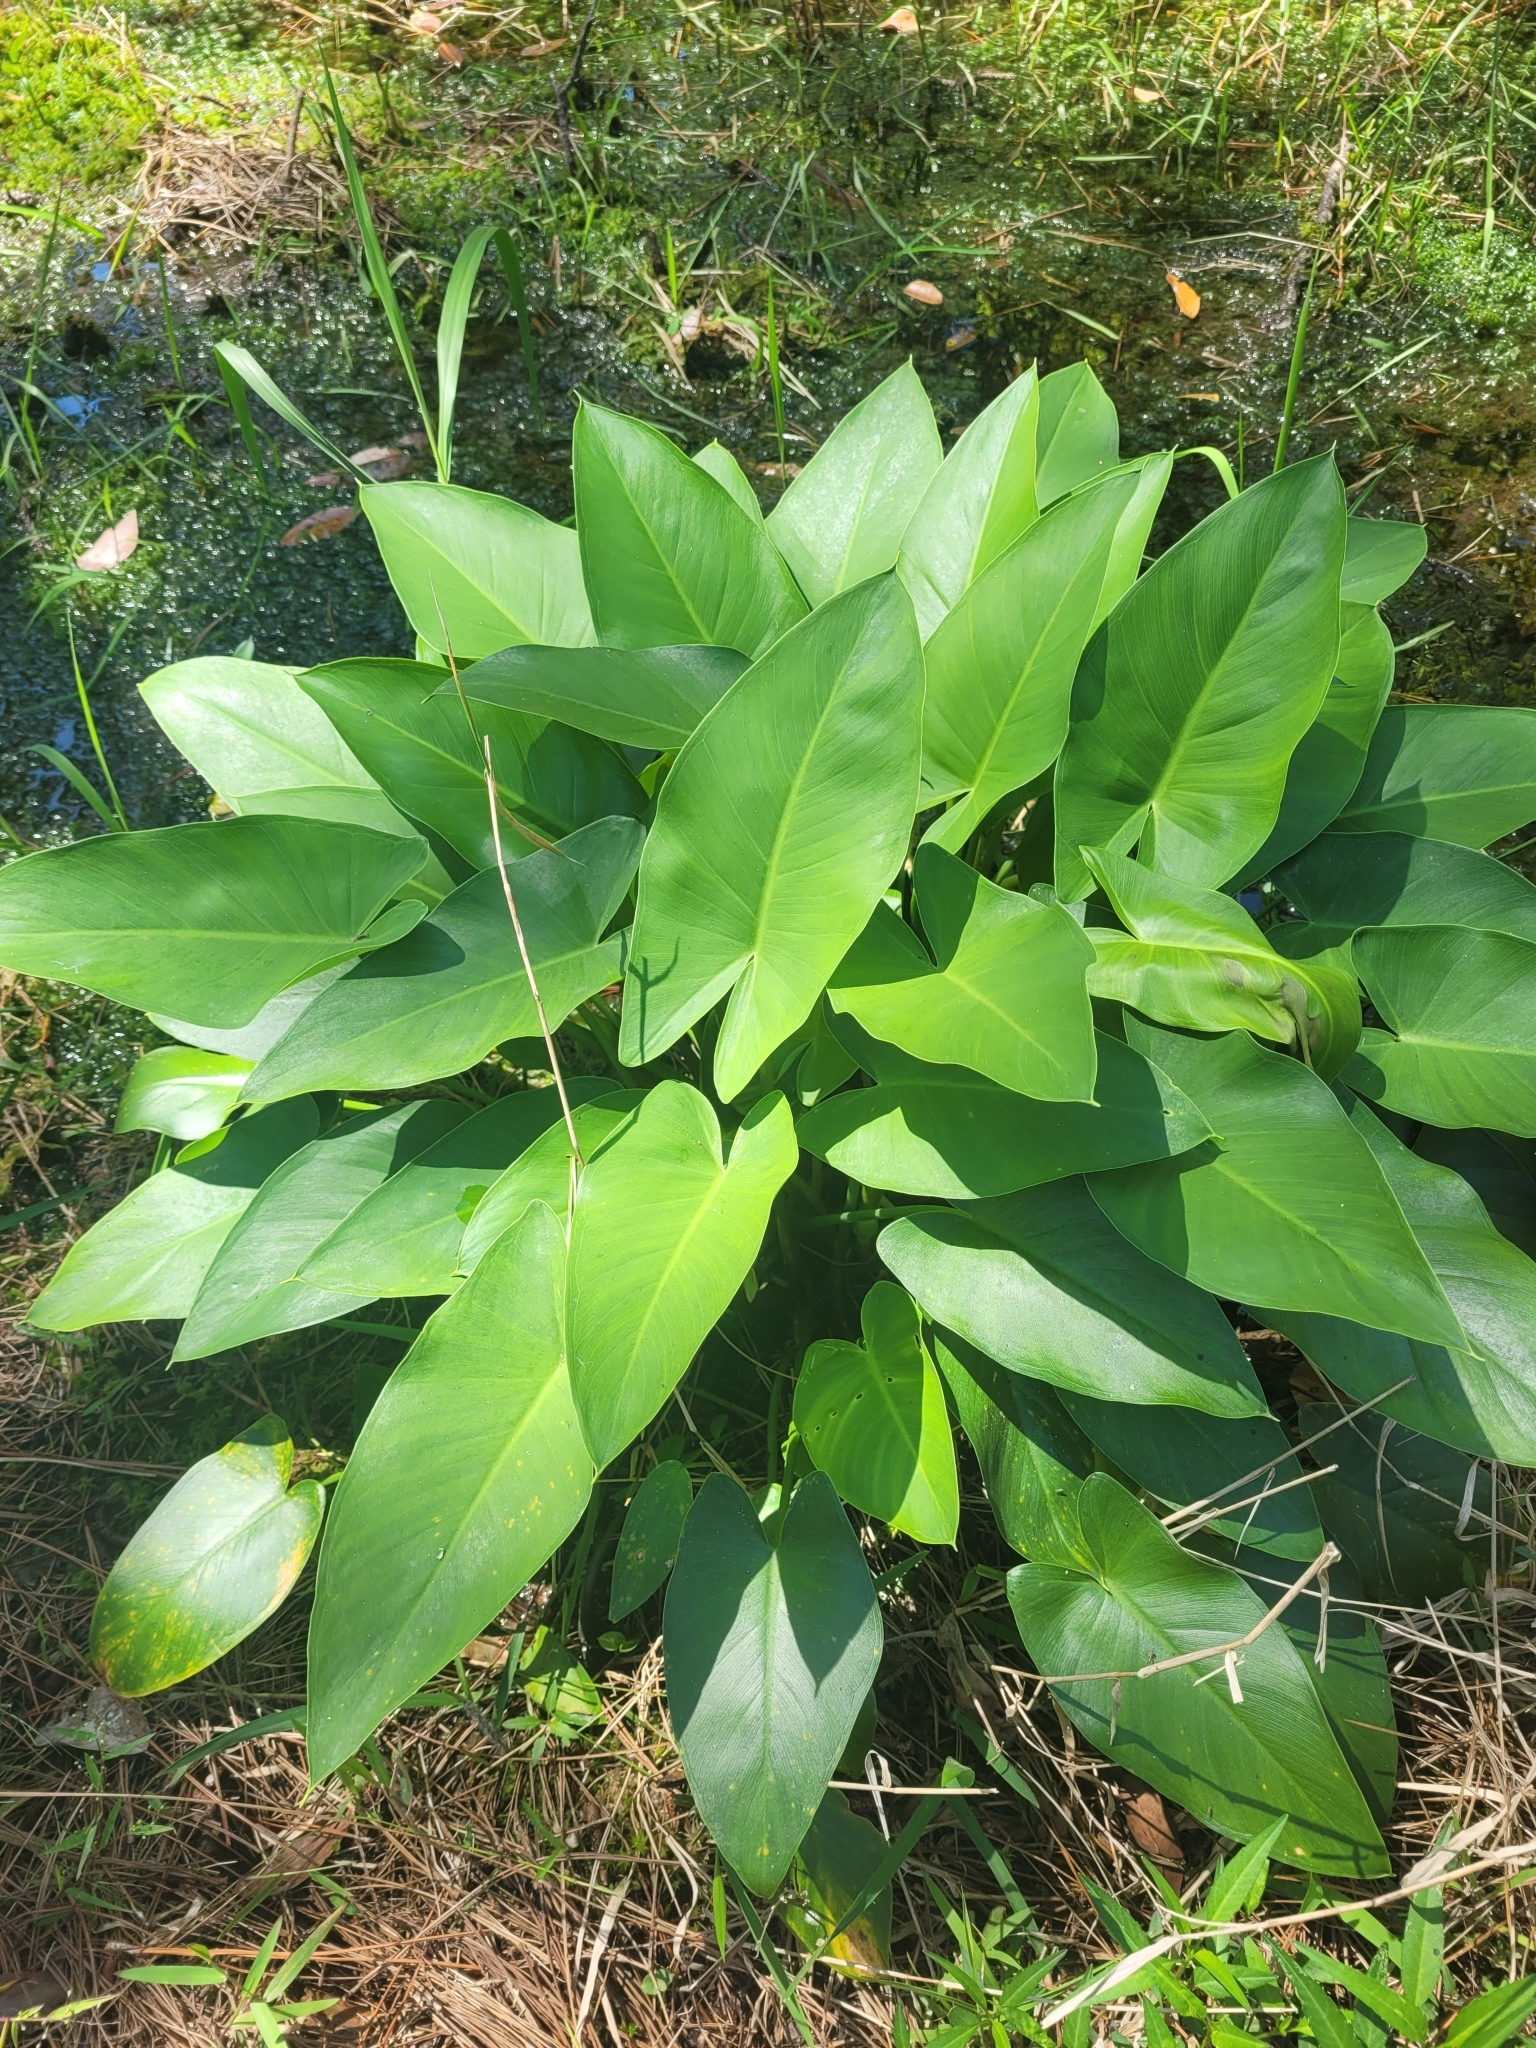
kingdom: Plantae
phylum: Tracheophyta
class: Liliopsida
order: Alismatales
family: Araceae
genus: Peltandra
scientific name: Peltandra virginica
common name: Arrow arum
